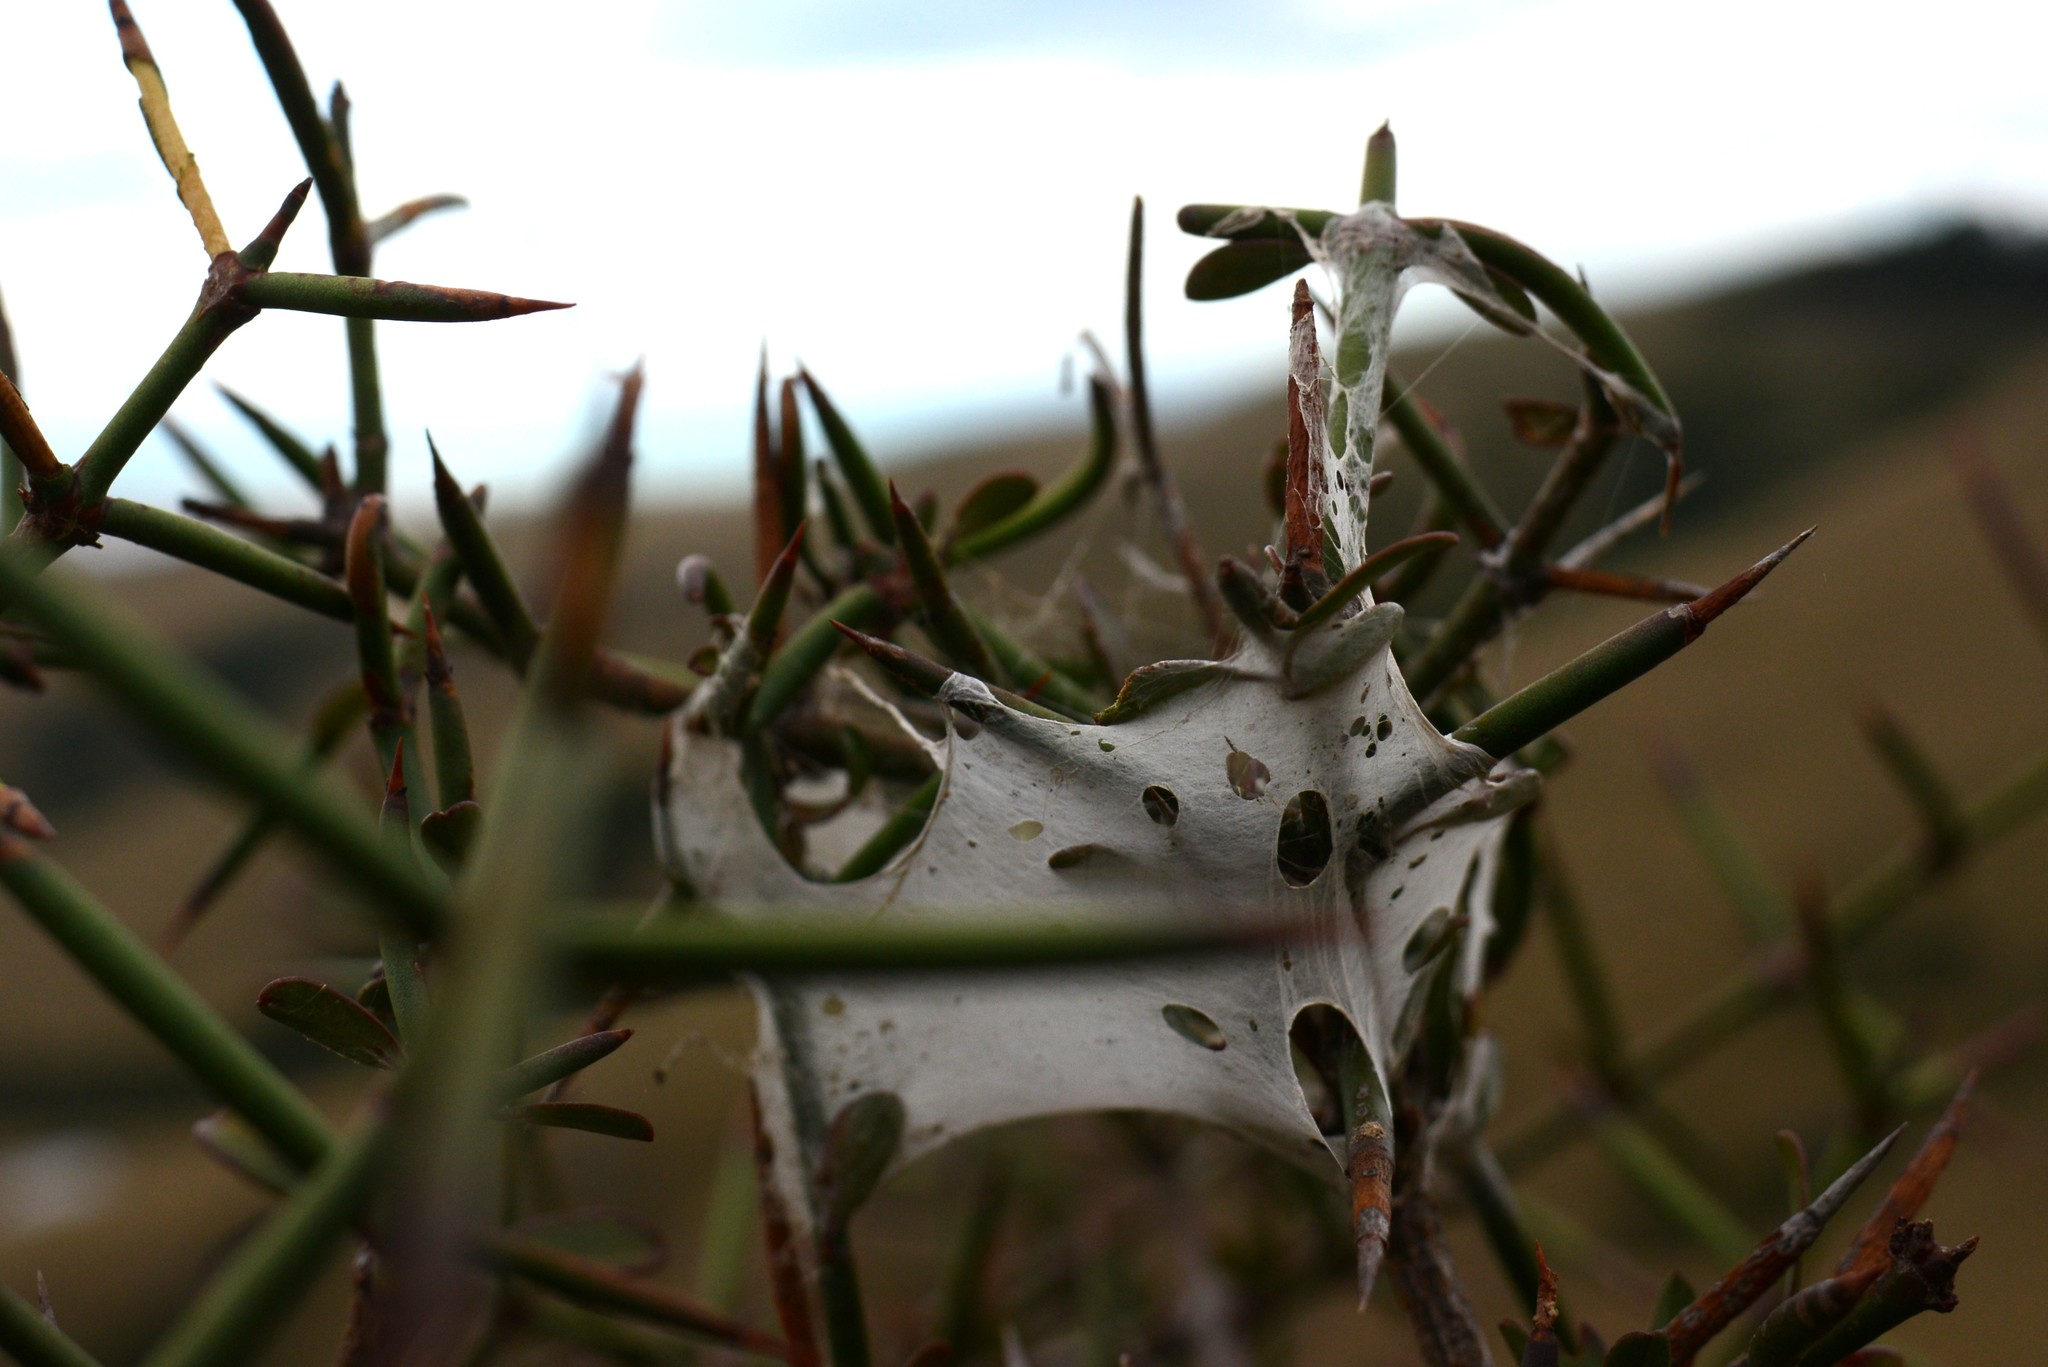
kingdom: Animalia
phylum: Arthropoda
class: Arachnida
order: Araneae
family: Pisauridae
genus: Dolomedes
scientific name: Dolomedes minor
